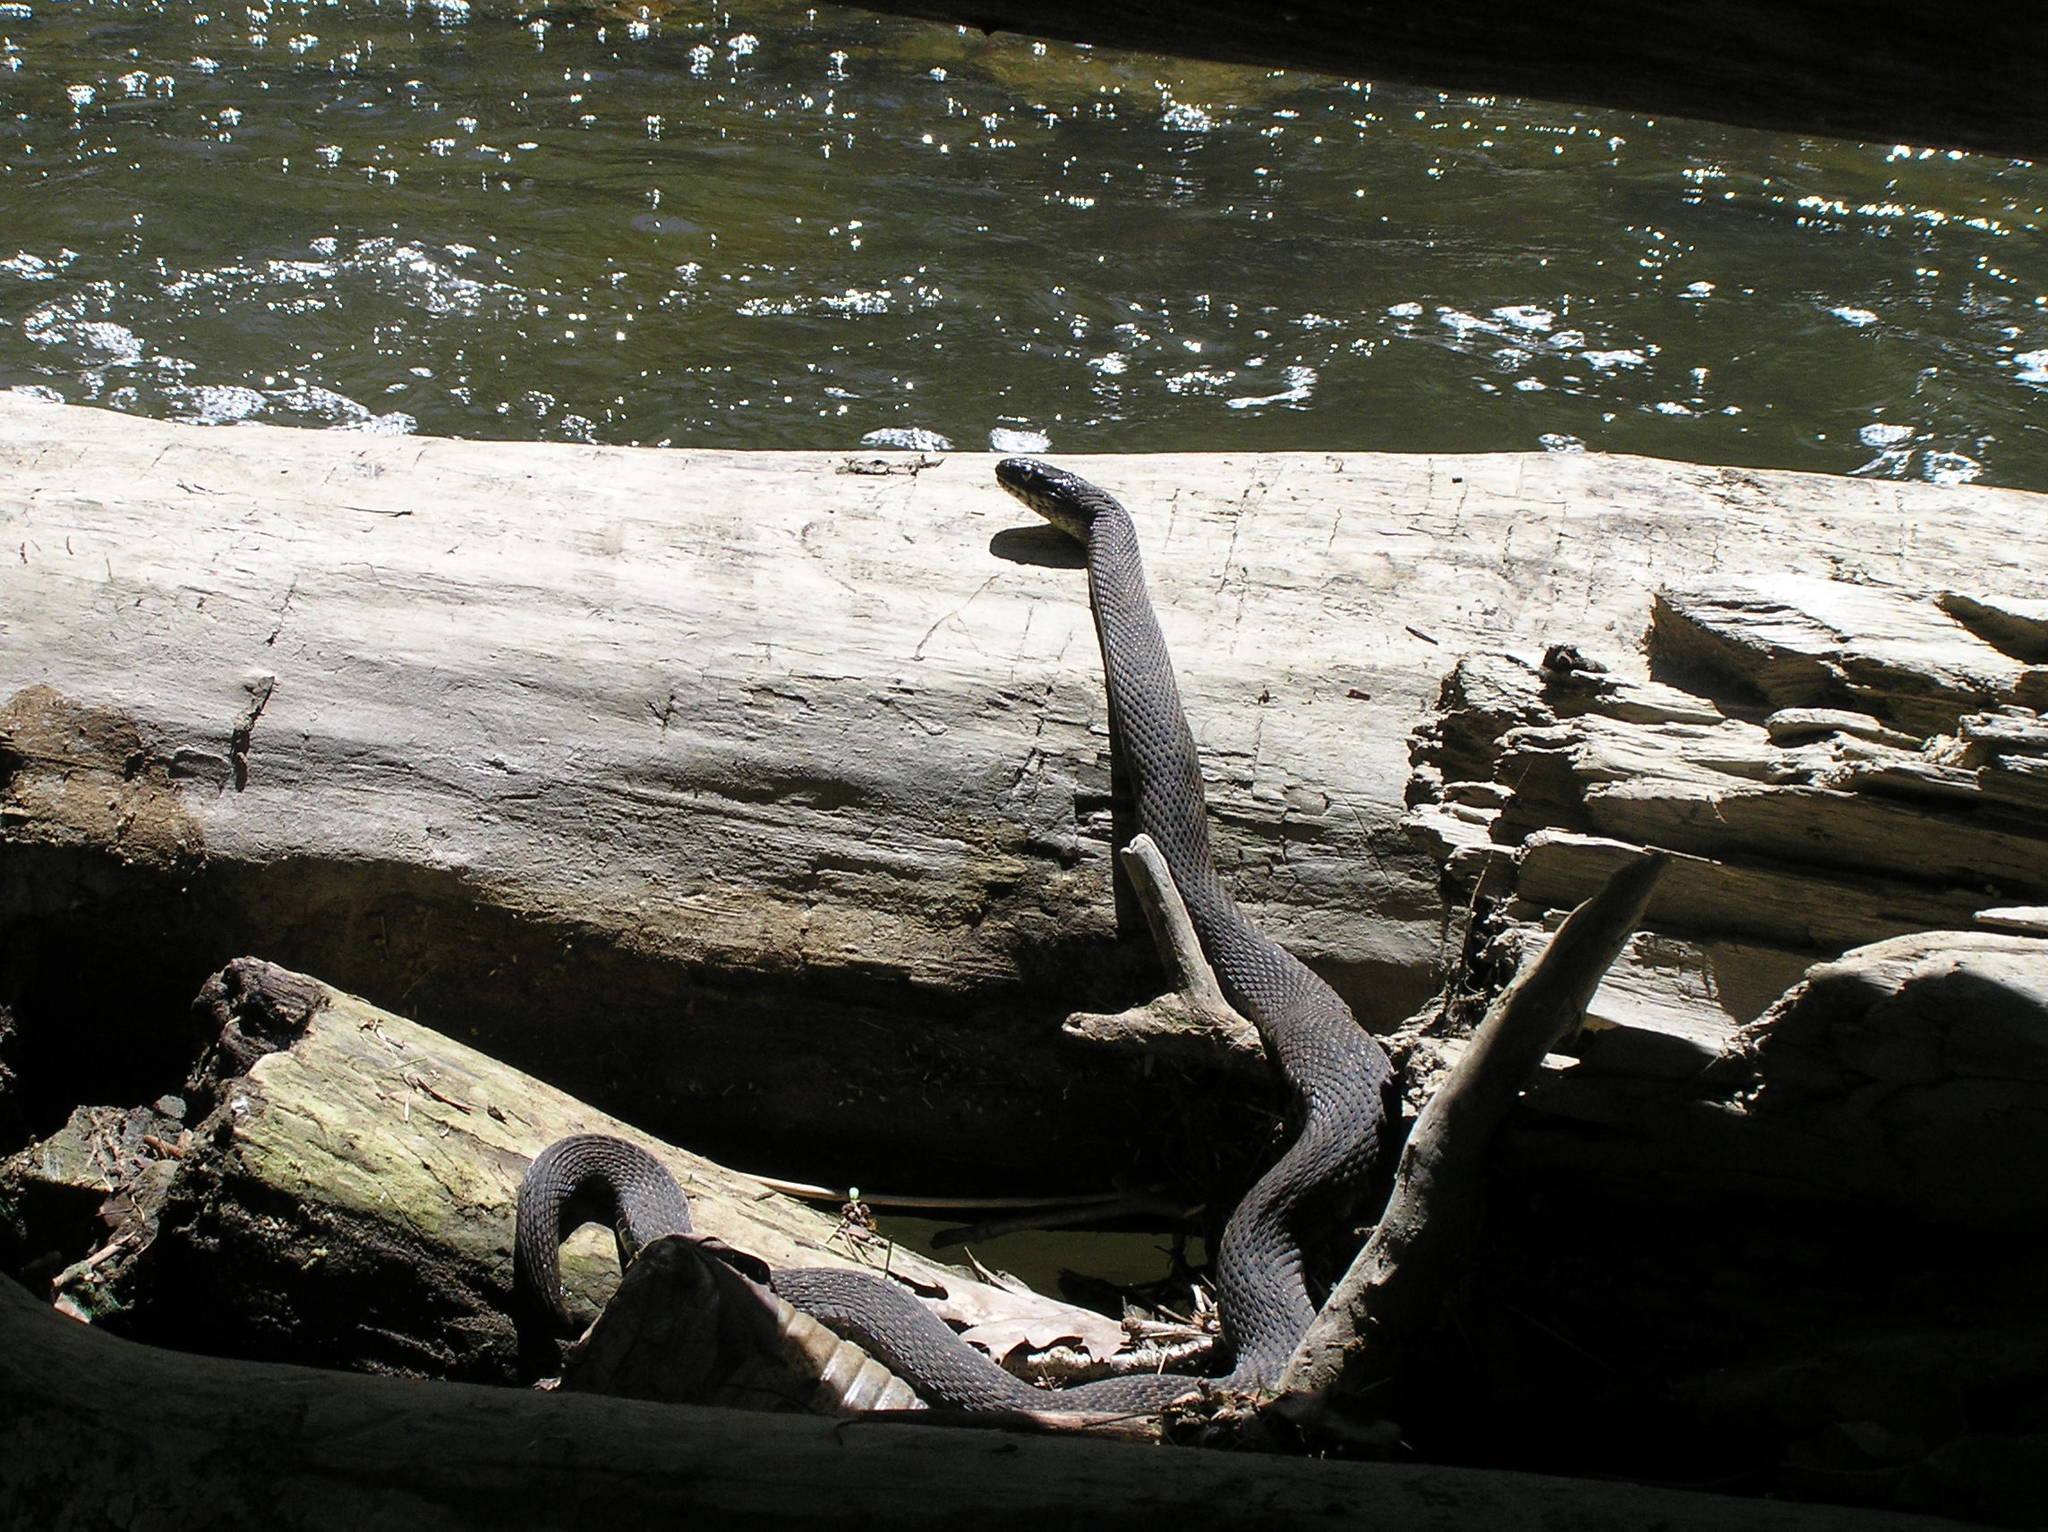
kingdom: Animalia
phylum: Chordata
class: Squamata
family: Colubridae
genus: Nerodia
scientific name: Nerodia sipedon
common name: Northern water snake
